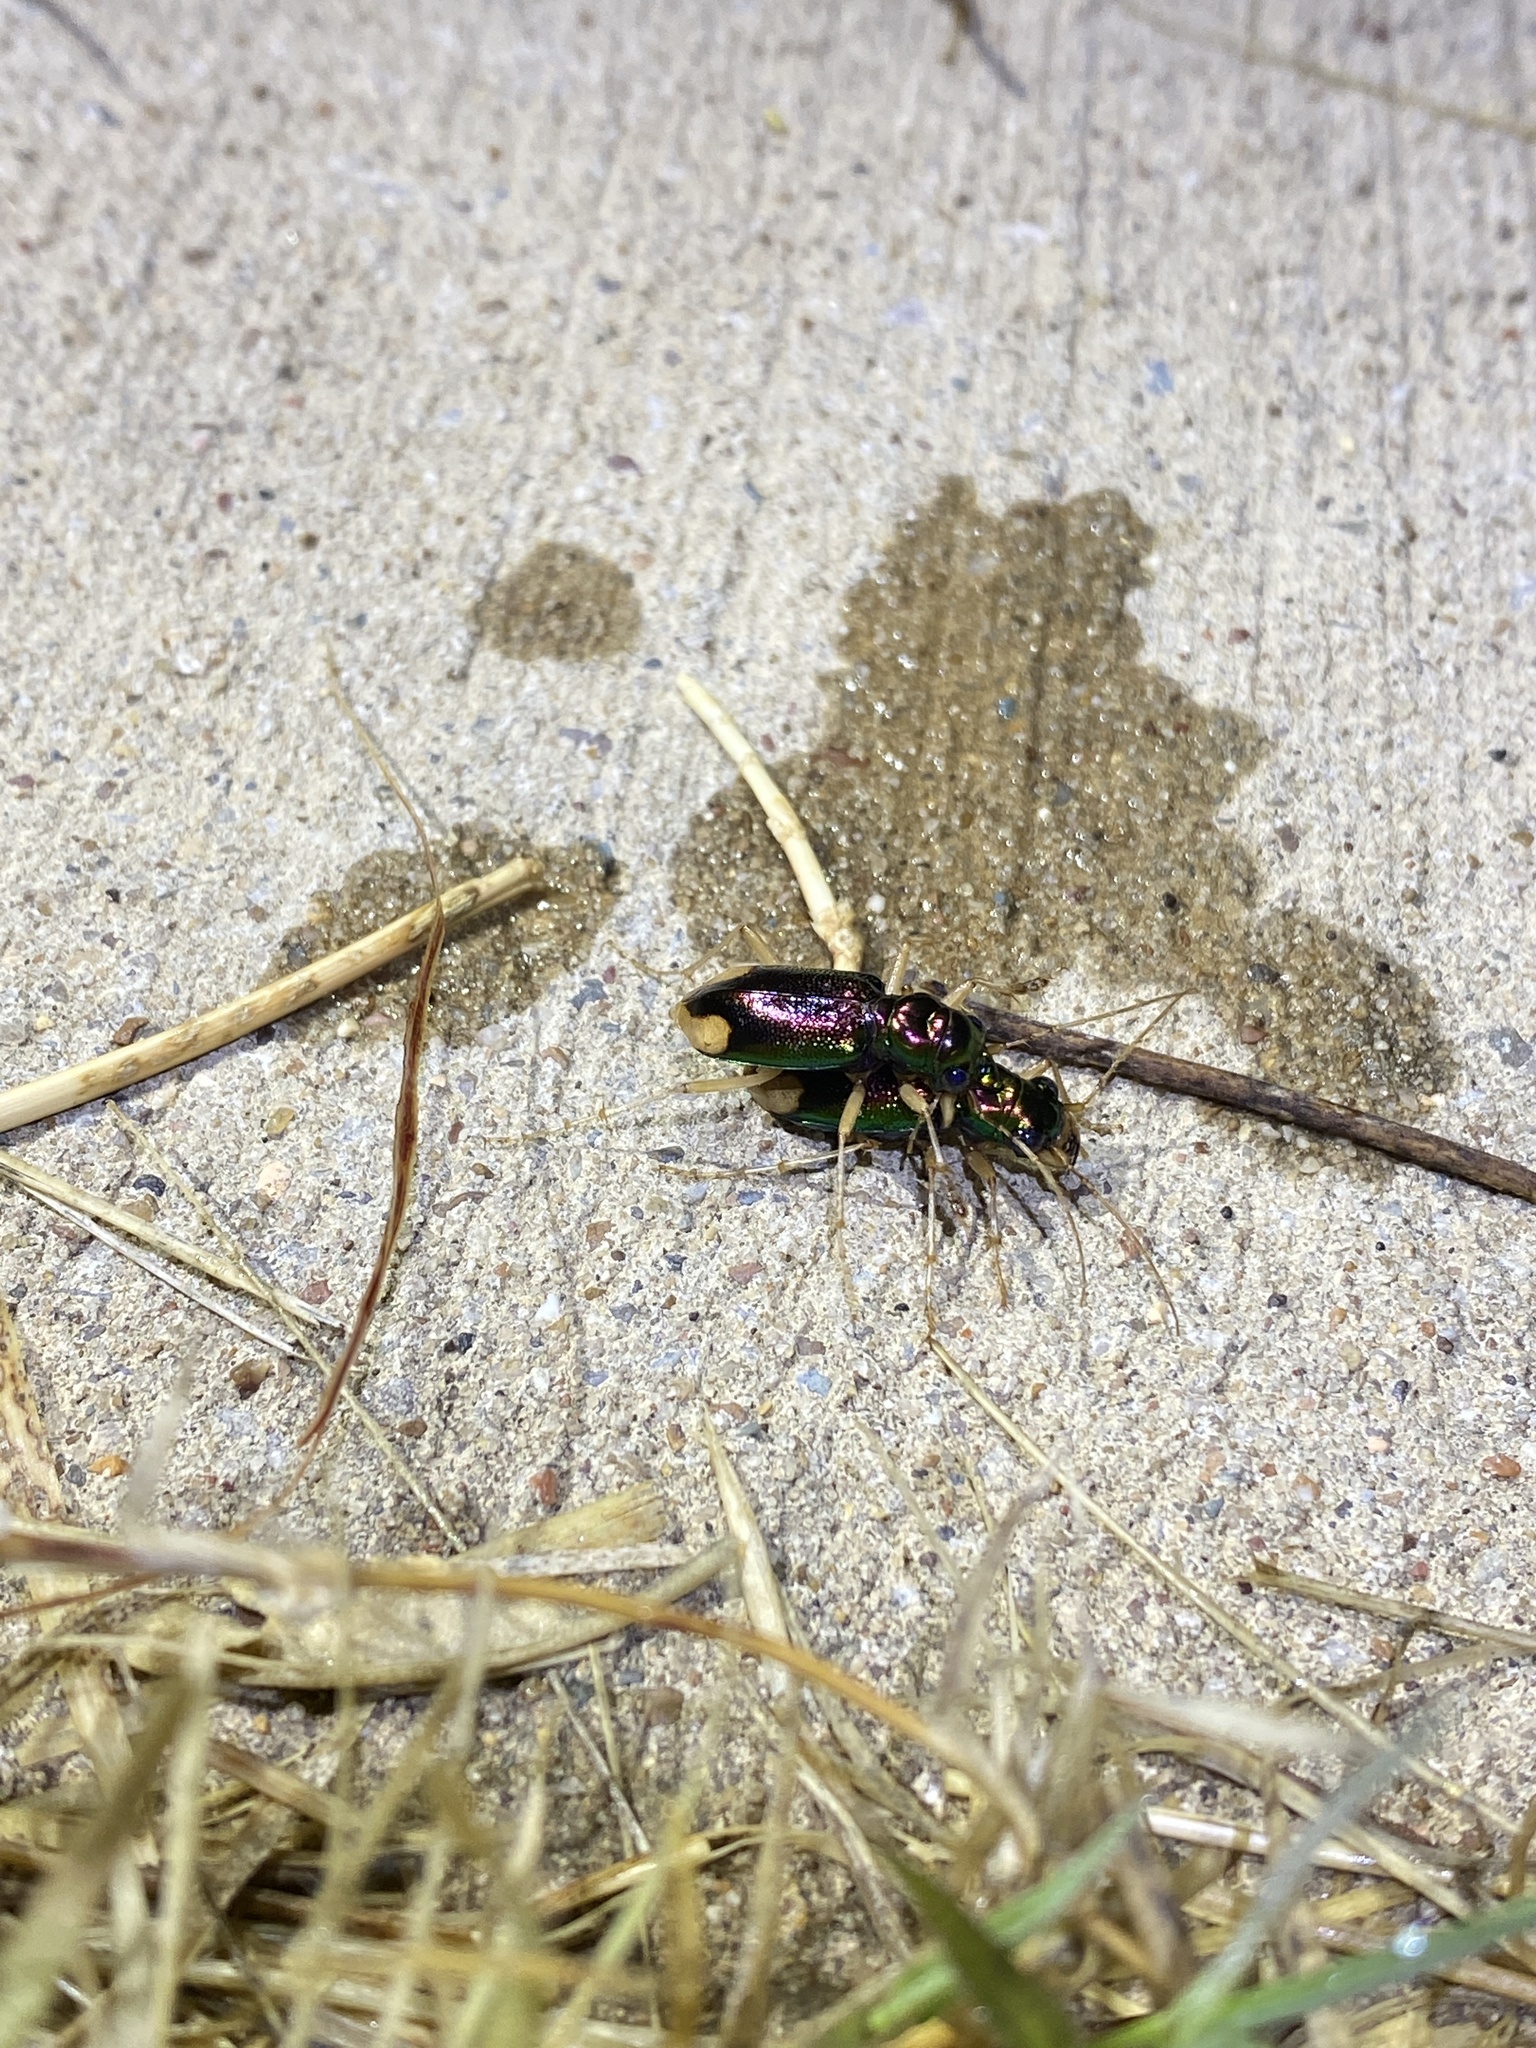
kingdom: Animalia
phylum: Arthropoda
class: Insecta
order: Coleoptera
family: Carabidae
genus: Tetracha
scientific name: Tetracha carolina
